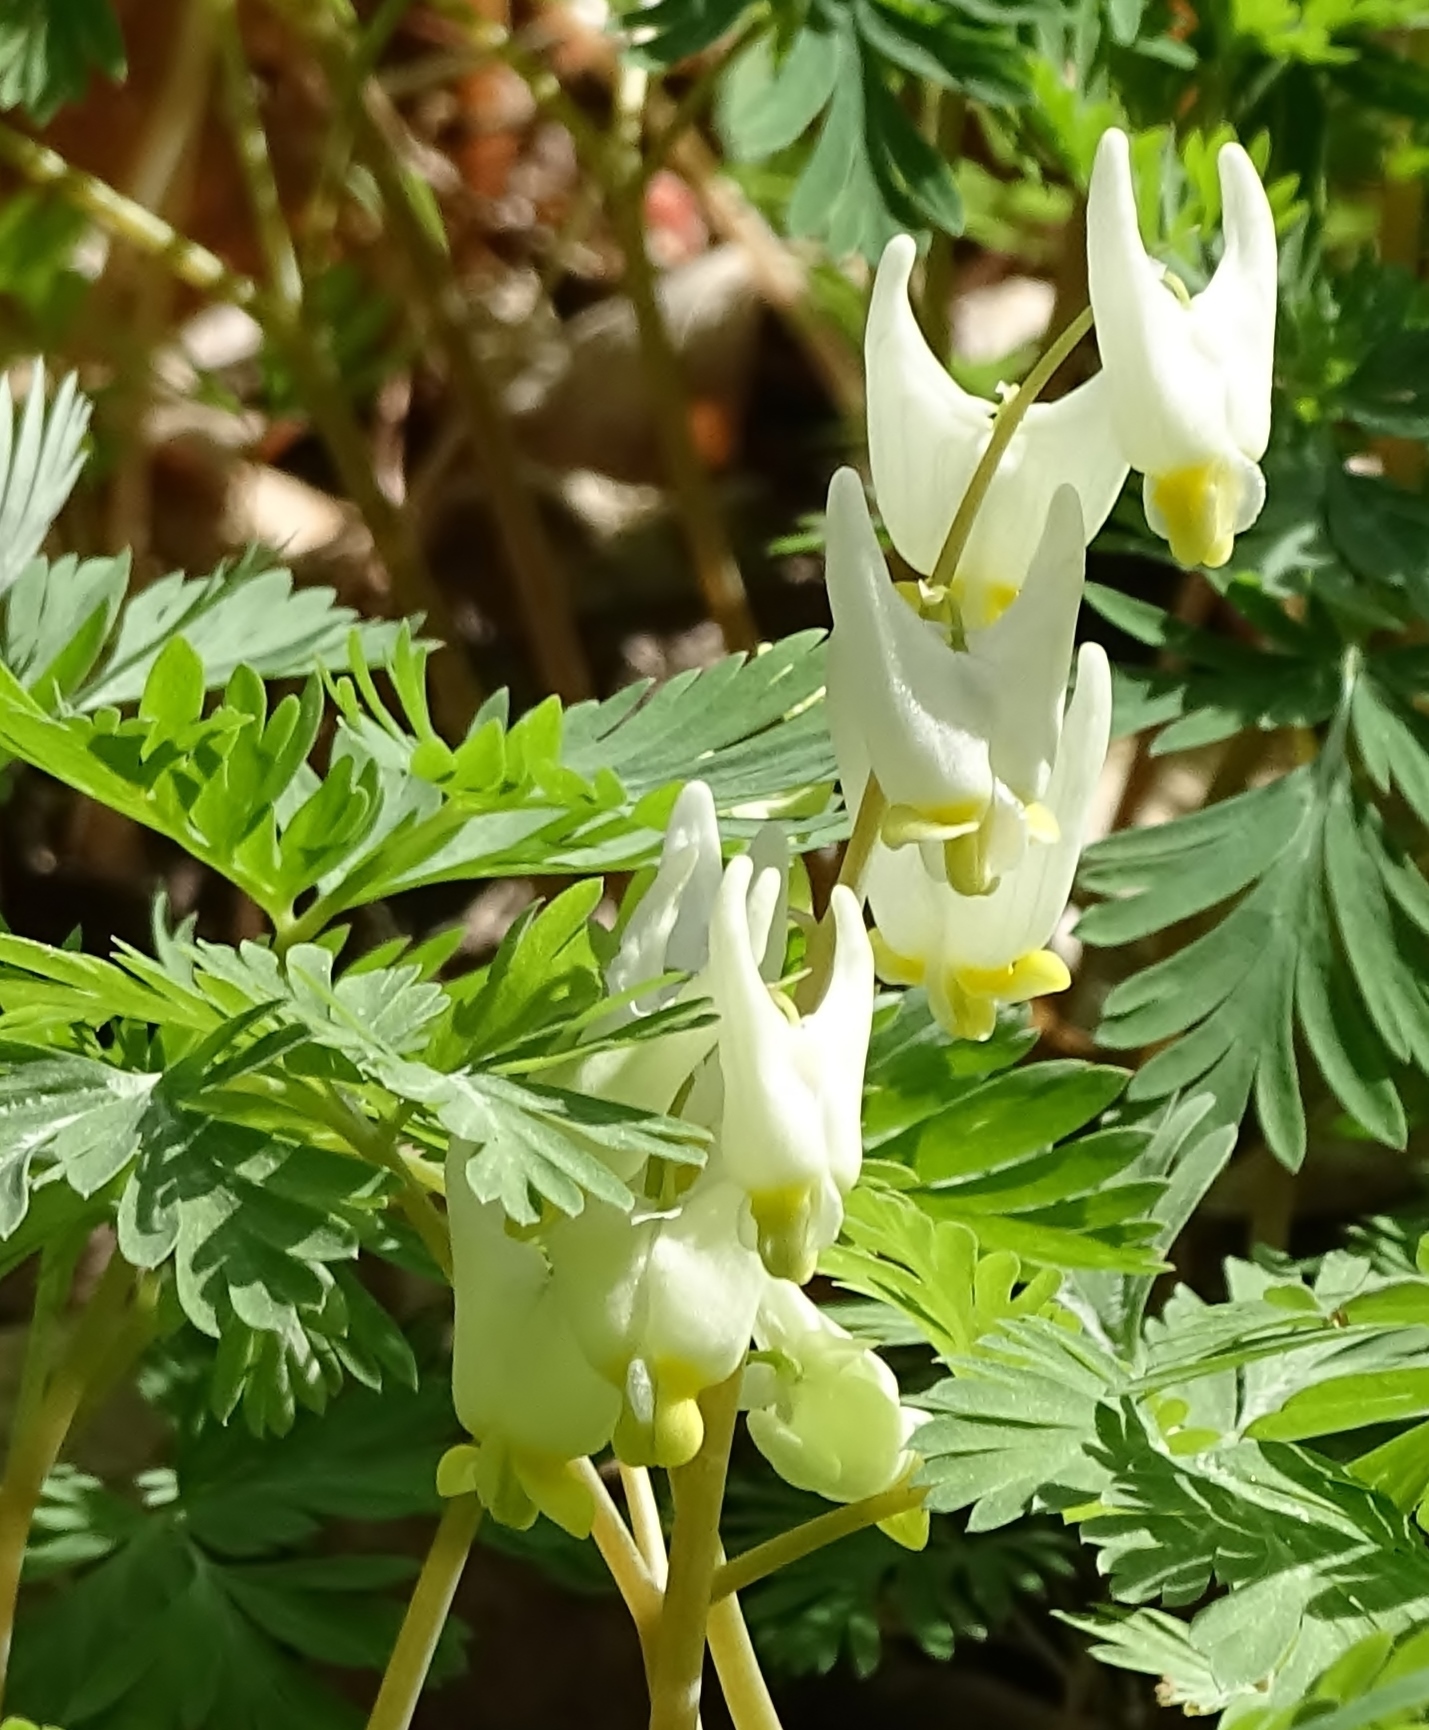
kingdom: Plantae
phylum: Tracheophyta
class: Magnoliopsida
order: Ranunculales
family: Papaveraceae
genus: Dicentra
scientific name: Dicentra cucullaria
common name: Dutchman's breeches
